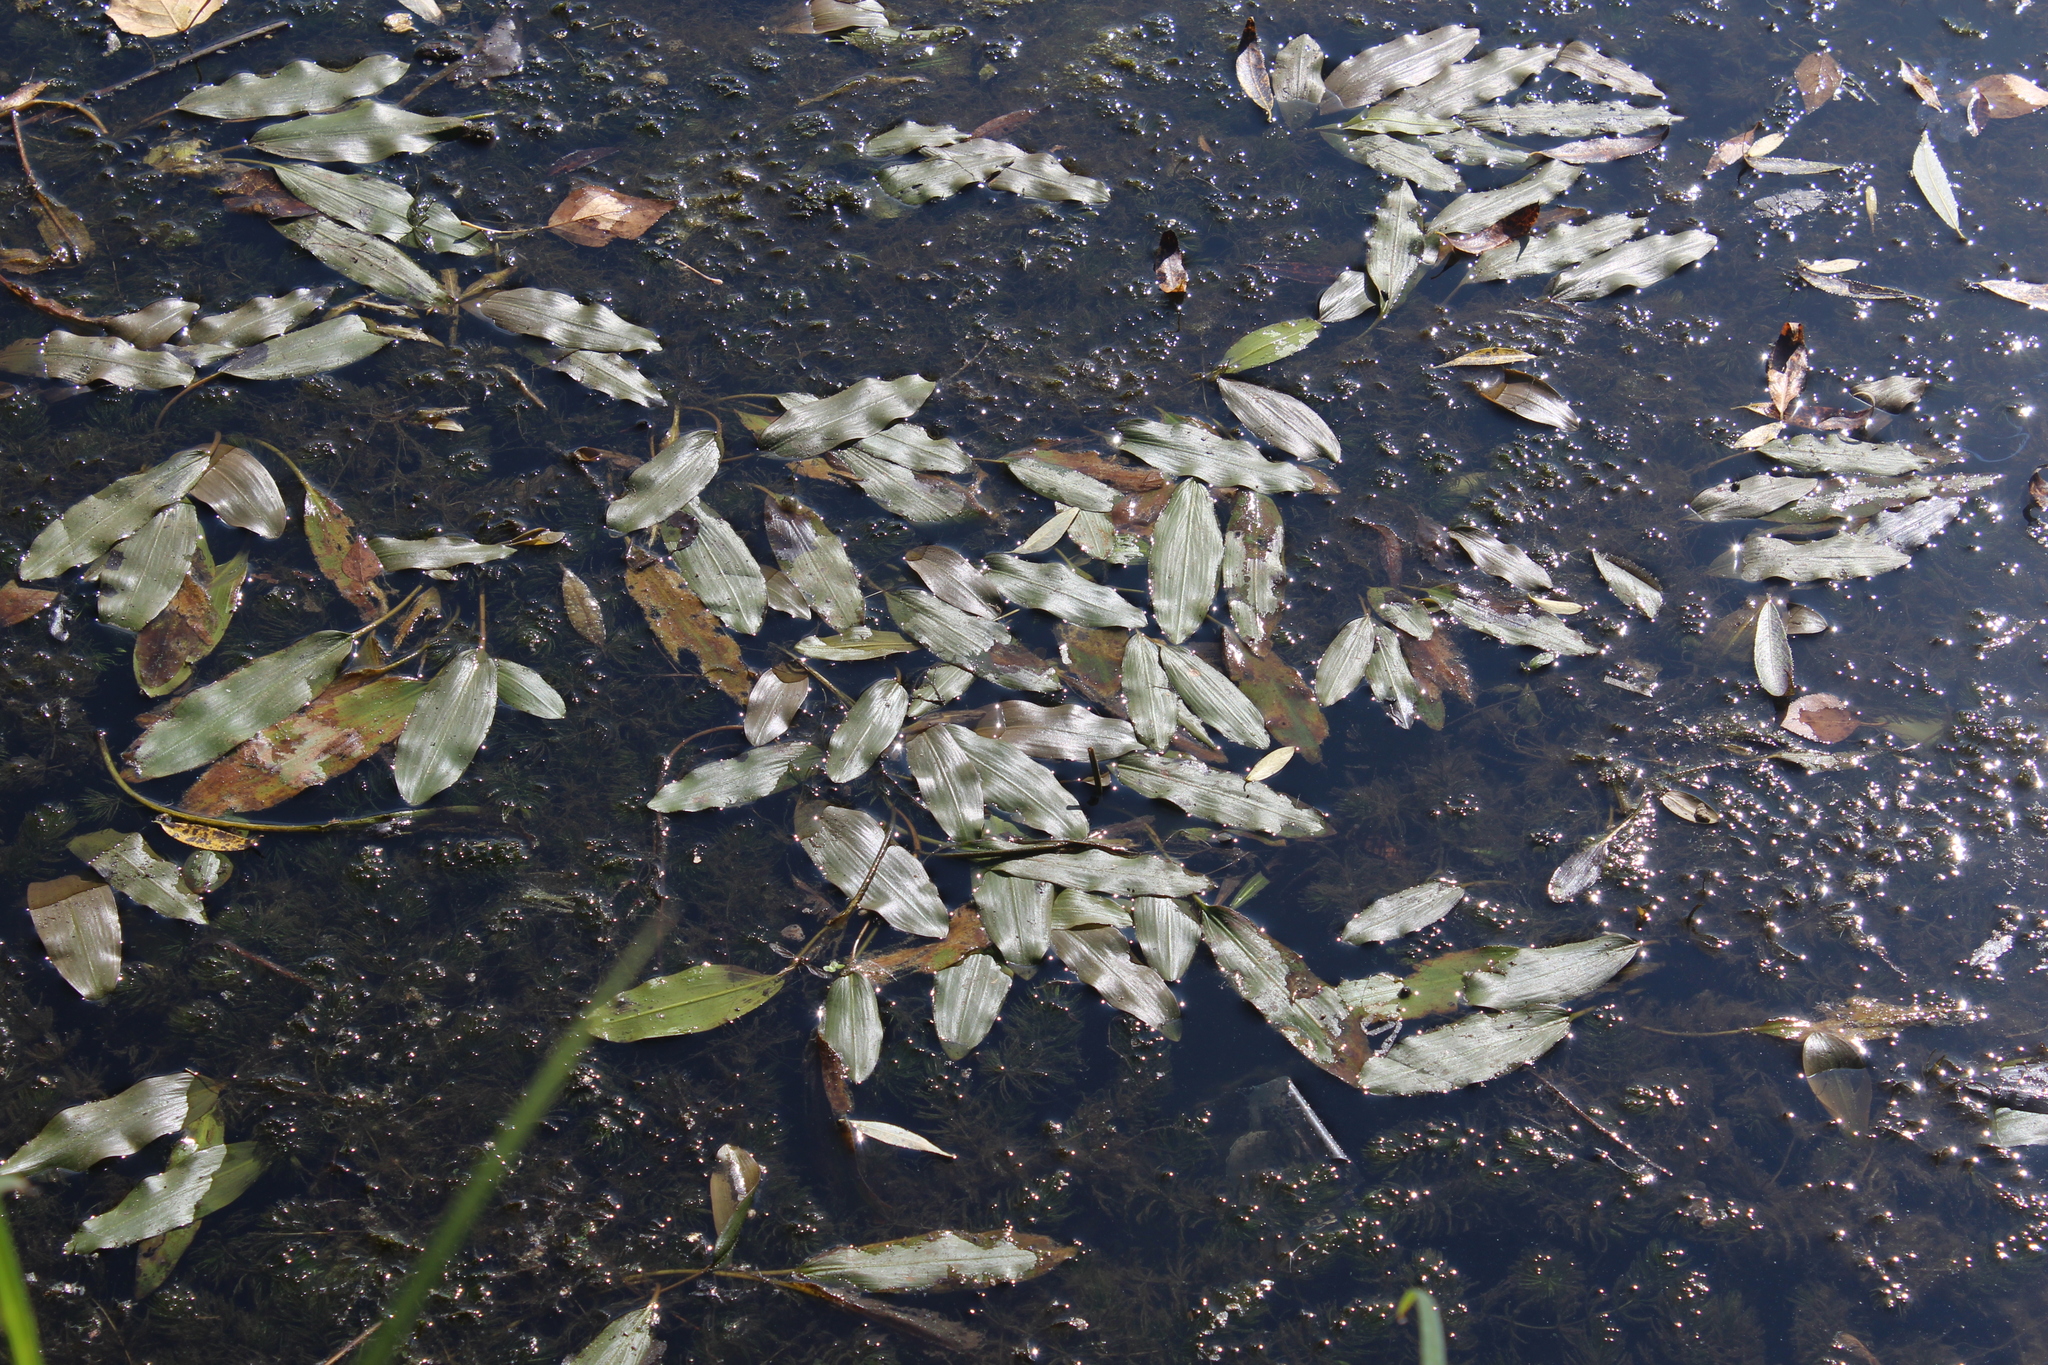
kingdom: Plantae
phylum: Tracheophyta
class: Liliopsida
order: Alismatales
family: Potamogetonaceae
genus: Potamogeton
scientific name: Potamogeton nodosus
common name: Loddon pondweed
